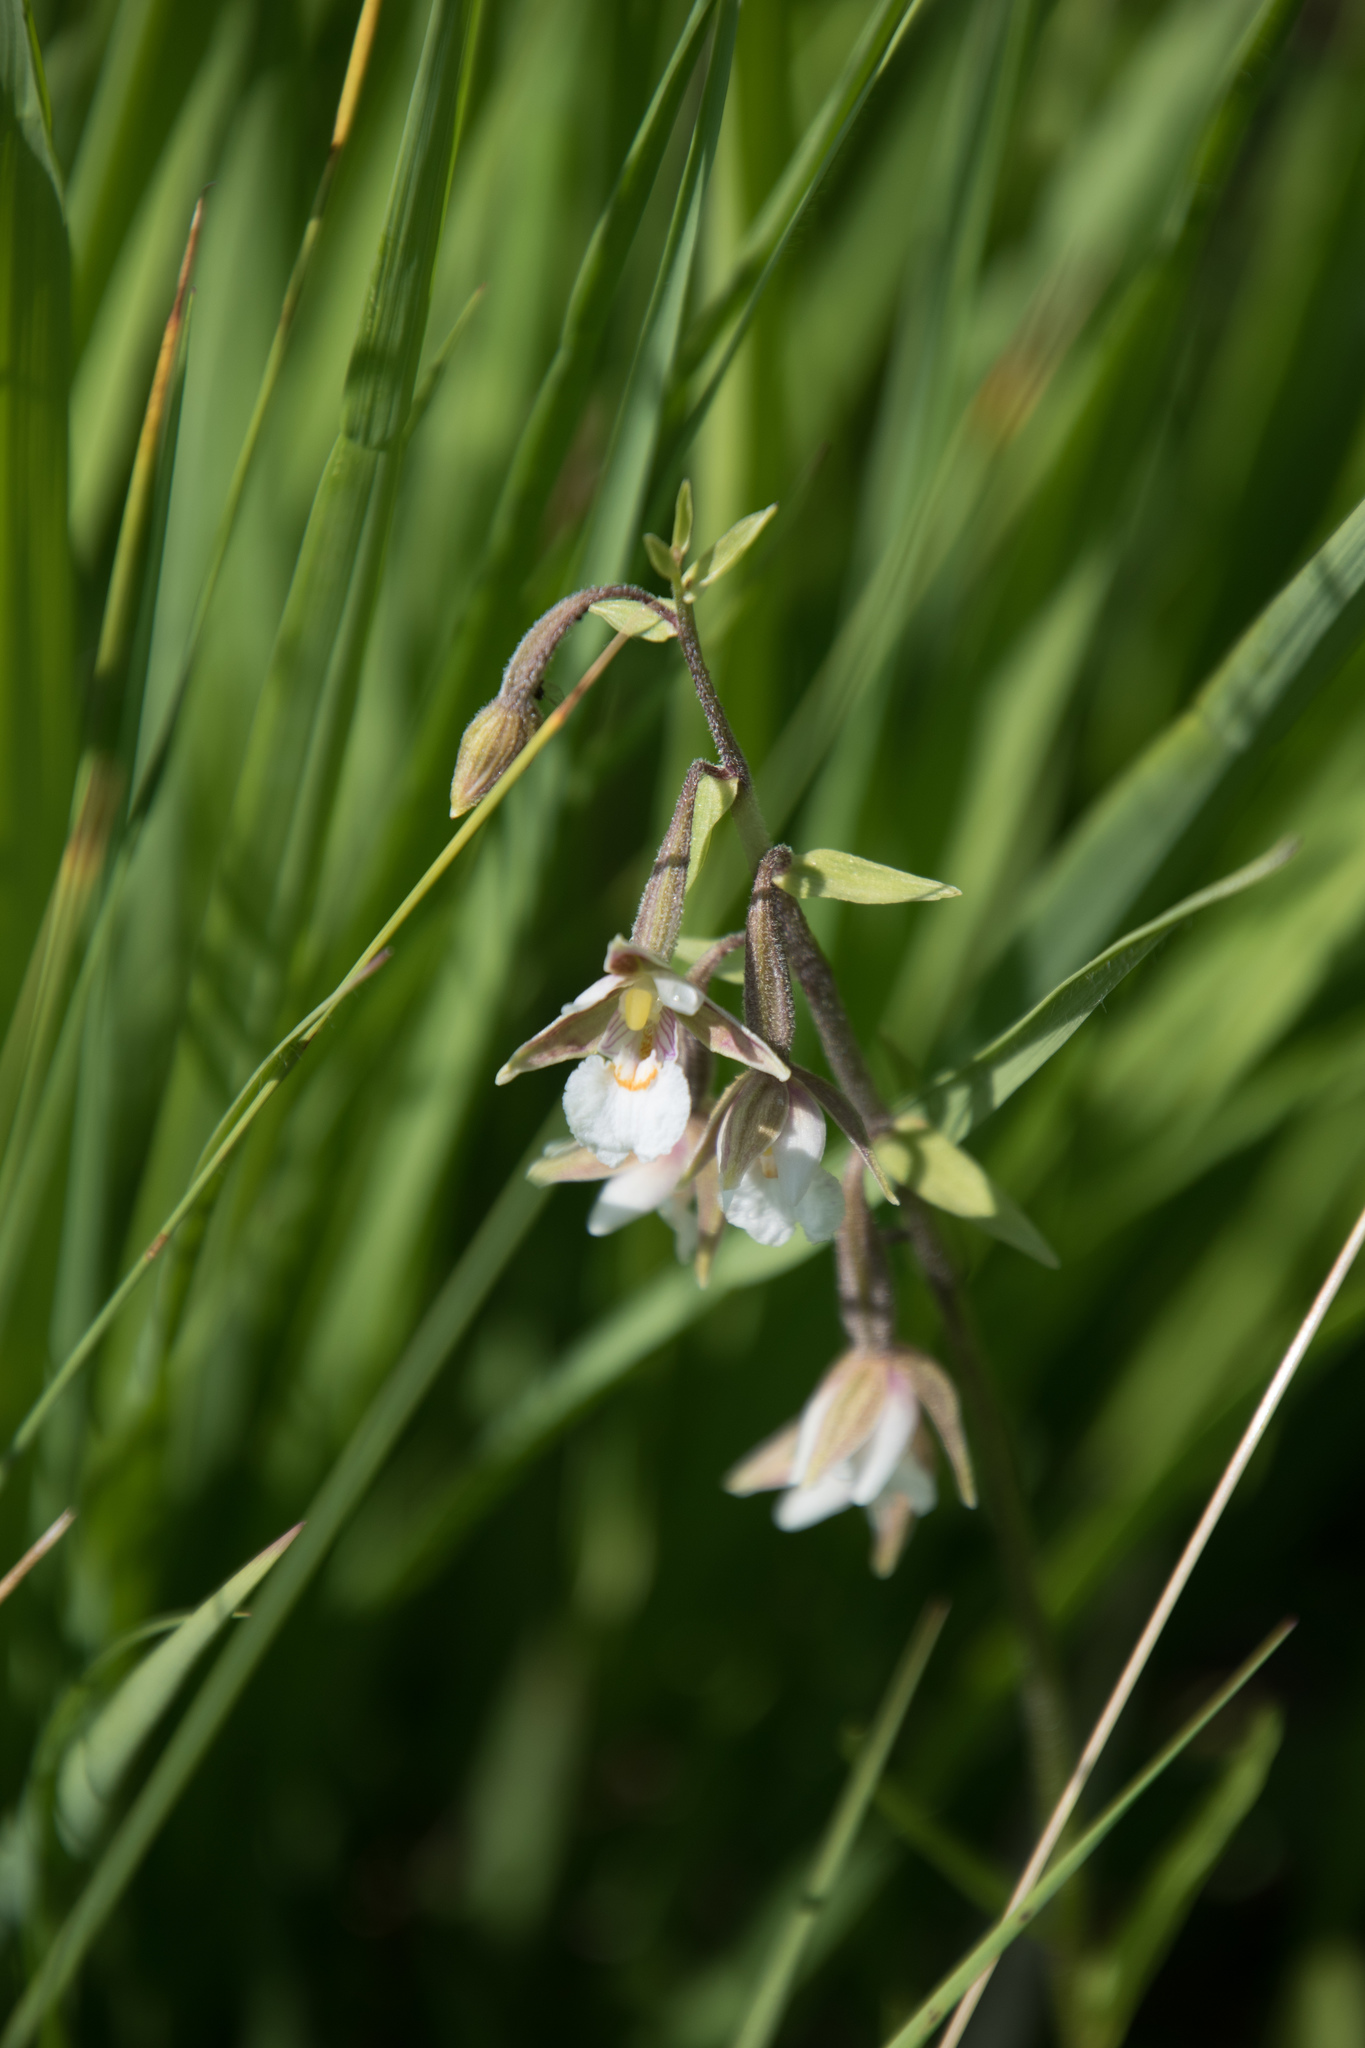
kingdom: Plantae
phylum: Tracheophyta
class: Liliopsida
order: Asparagales
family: Orchidaceae
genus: Epipactis
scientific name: Epipactis palustris
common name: Marsh helleborine
